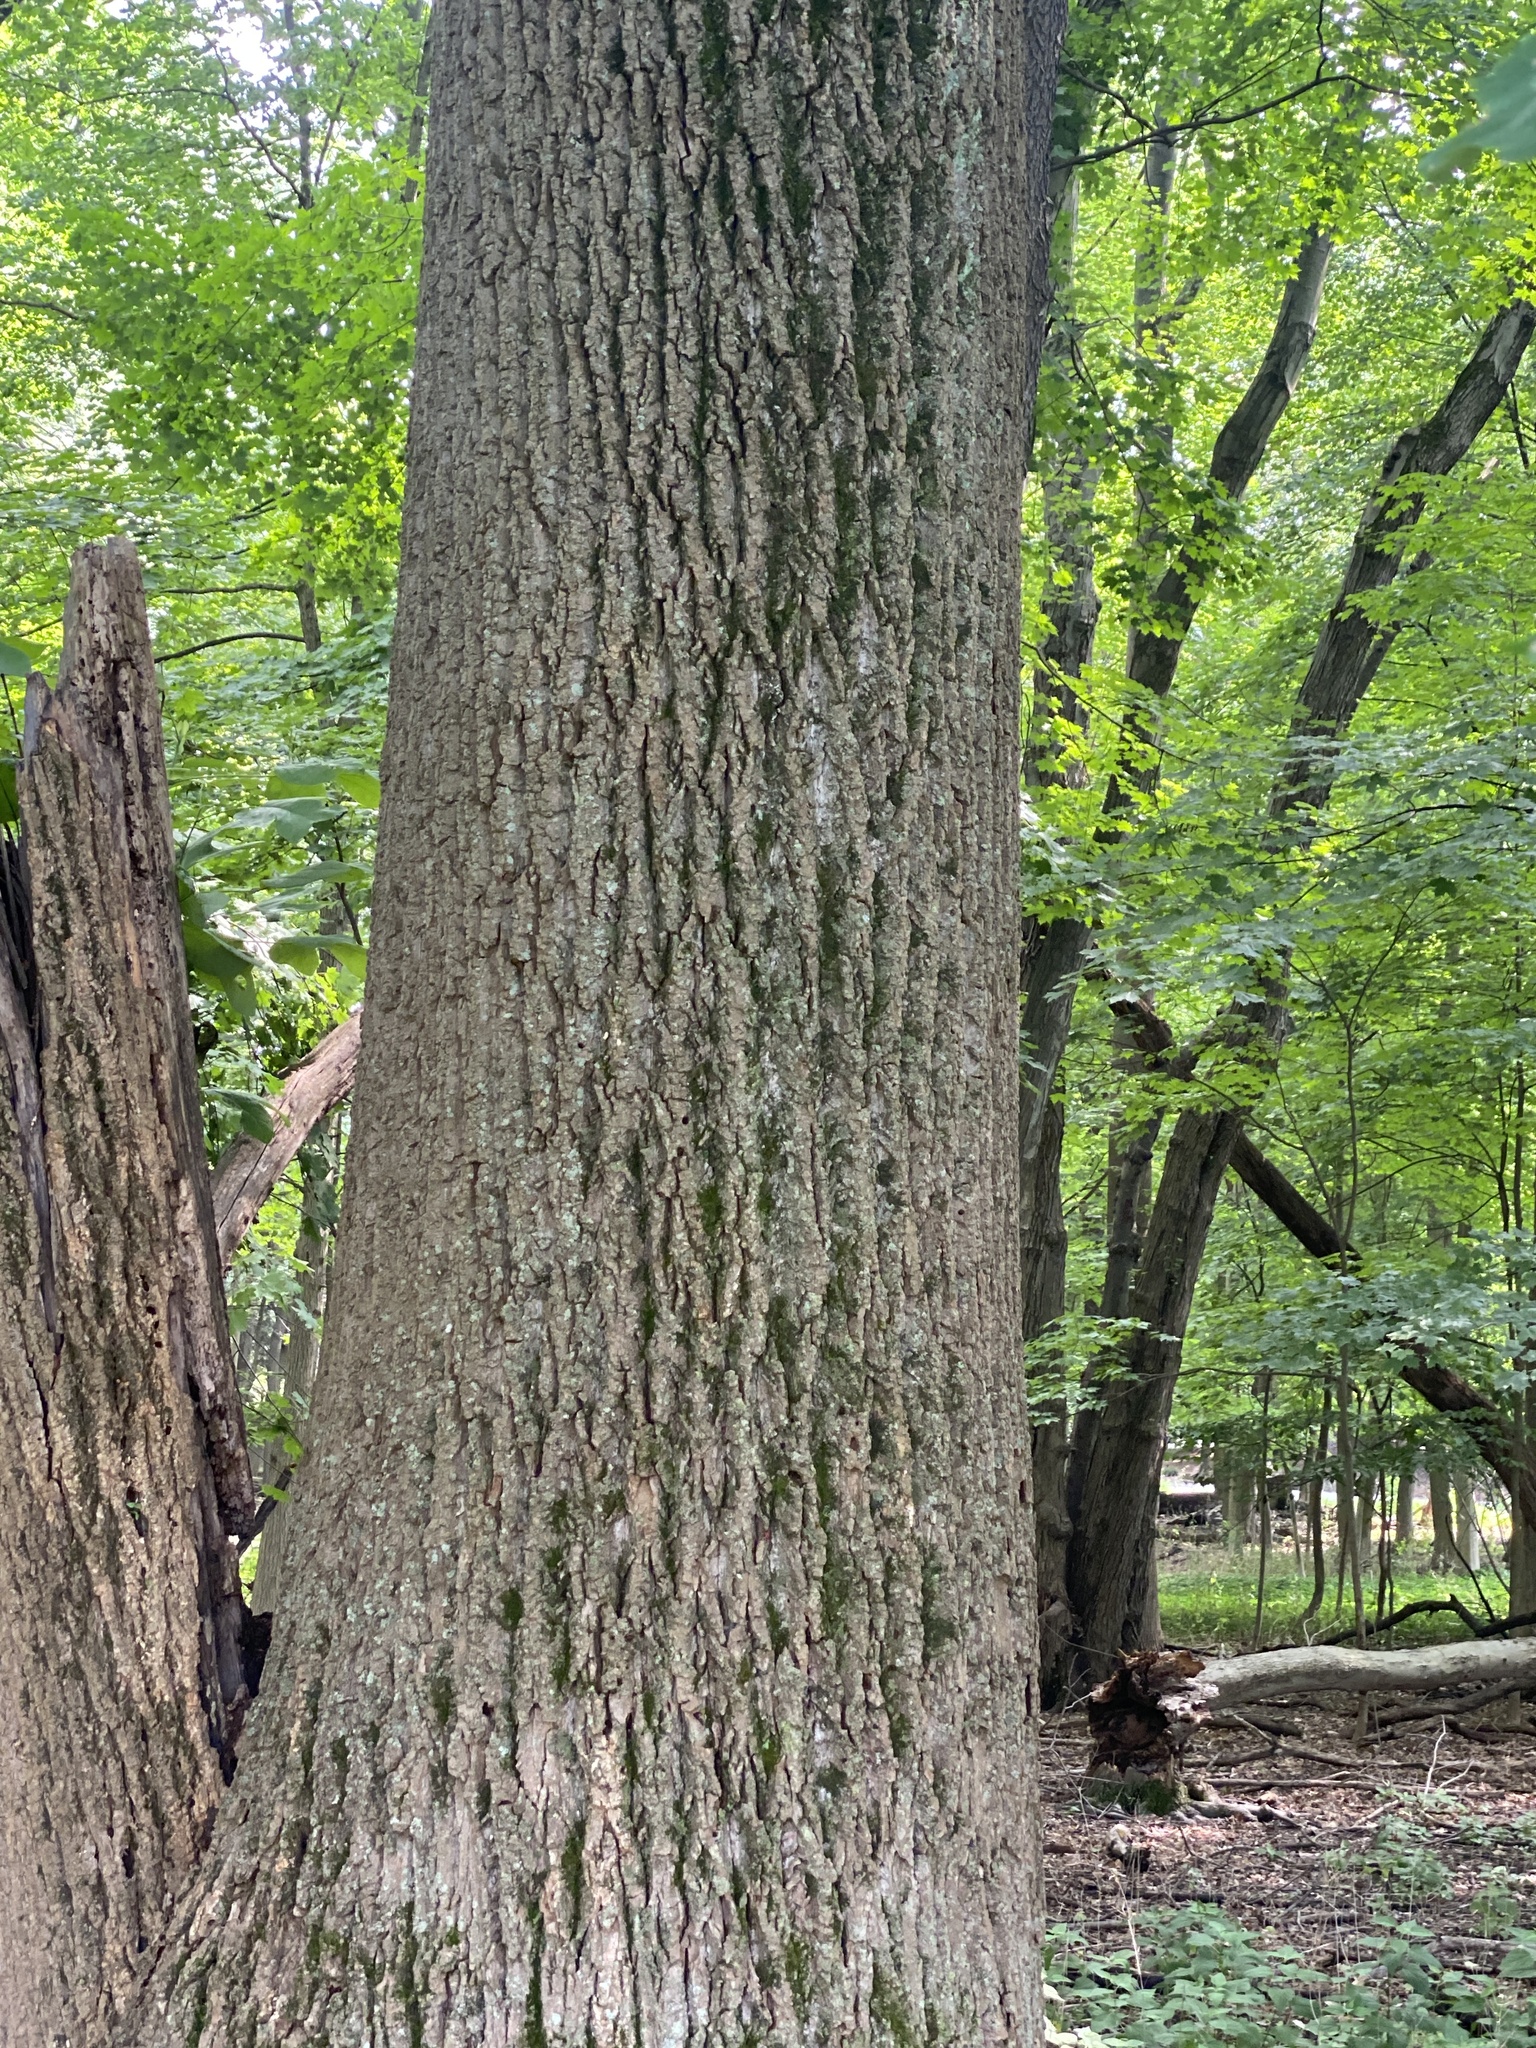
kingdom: Plantae
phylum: Tracheophyta
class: Magnoliopsida
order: Sapindales
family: Sapindaceae
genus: Acer
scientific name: Acer saccharum
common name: Sugar maple
